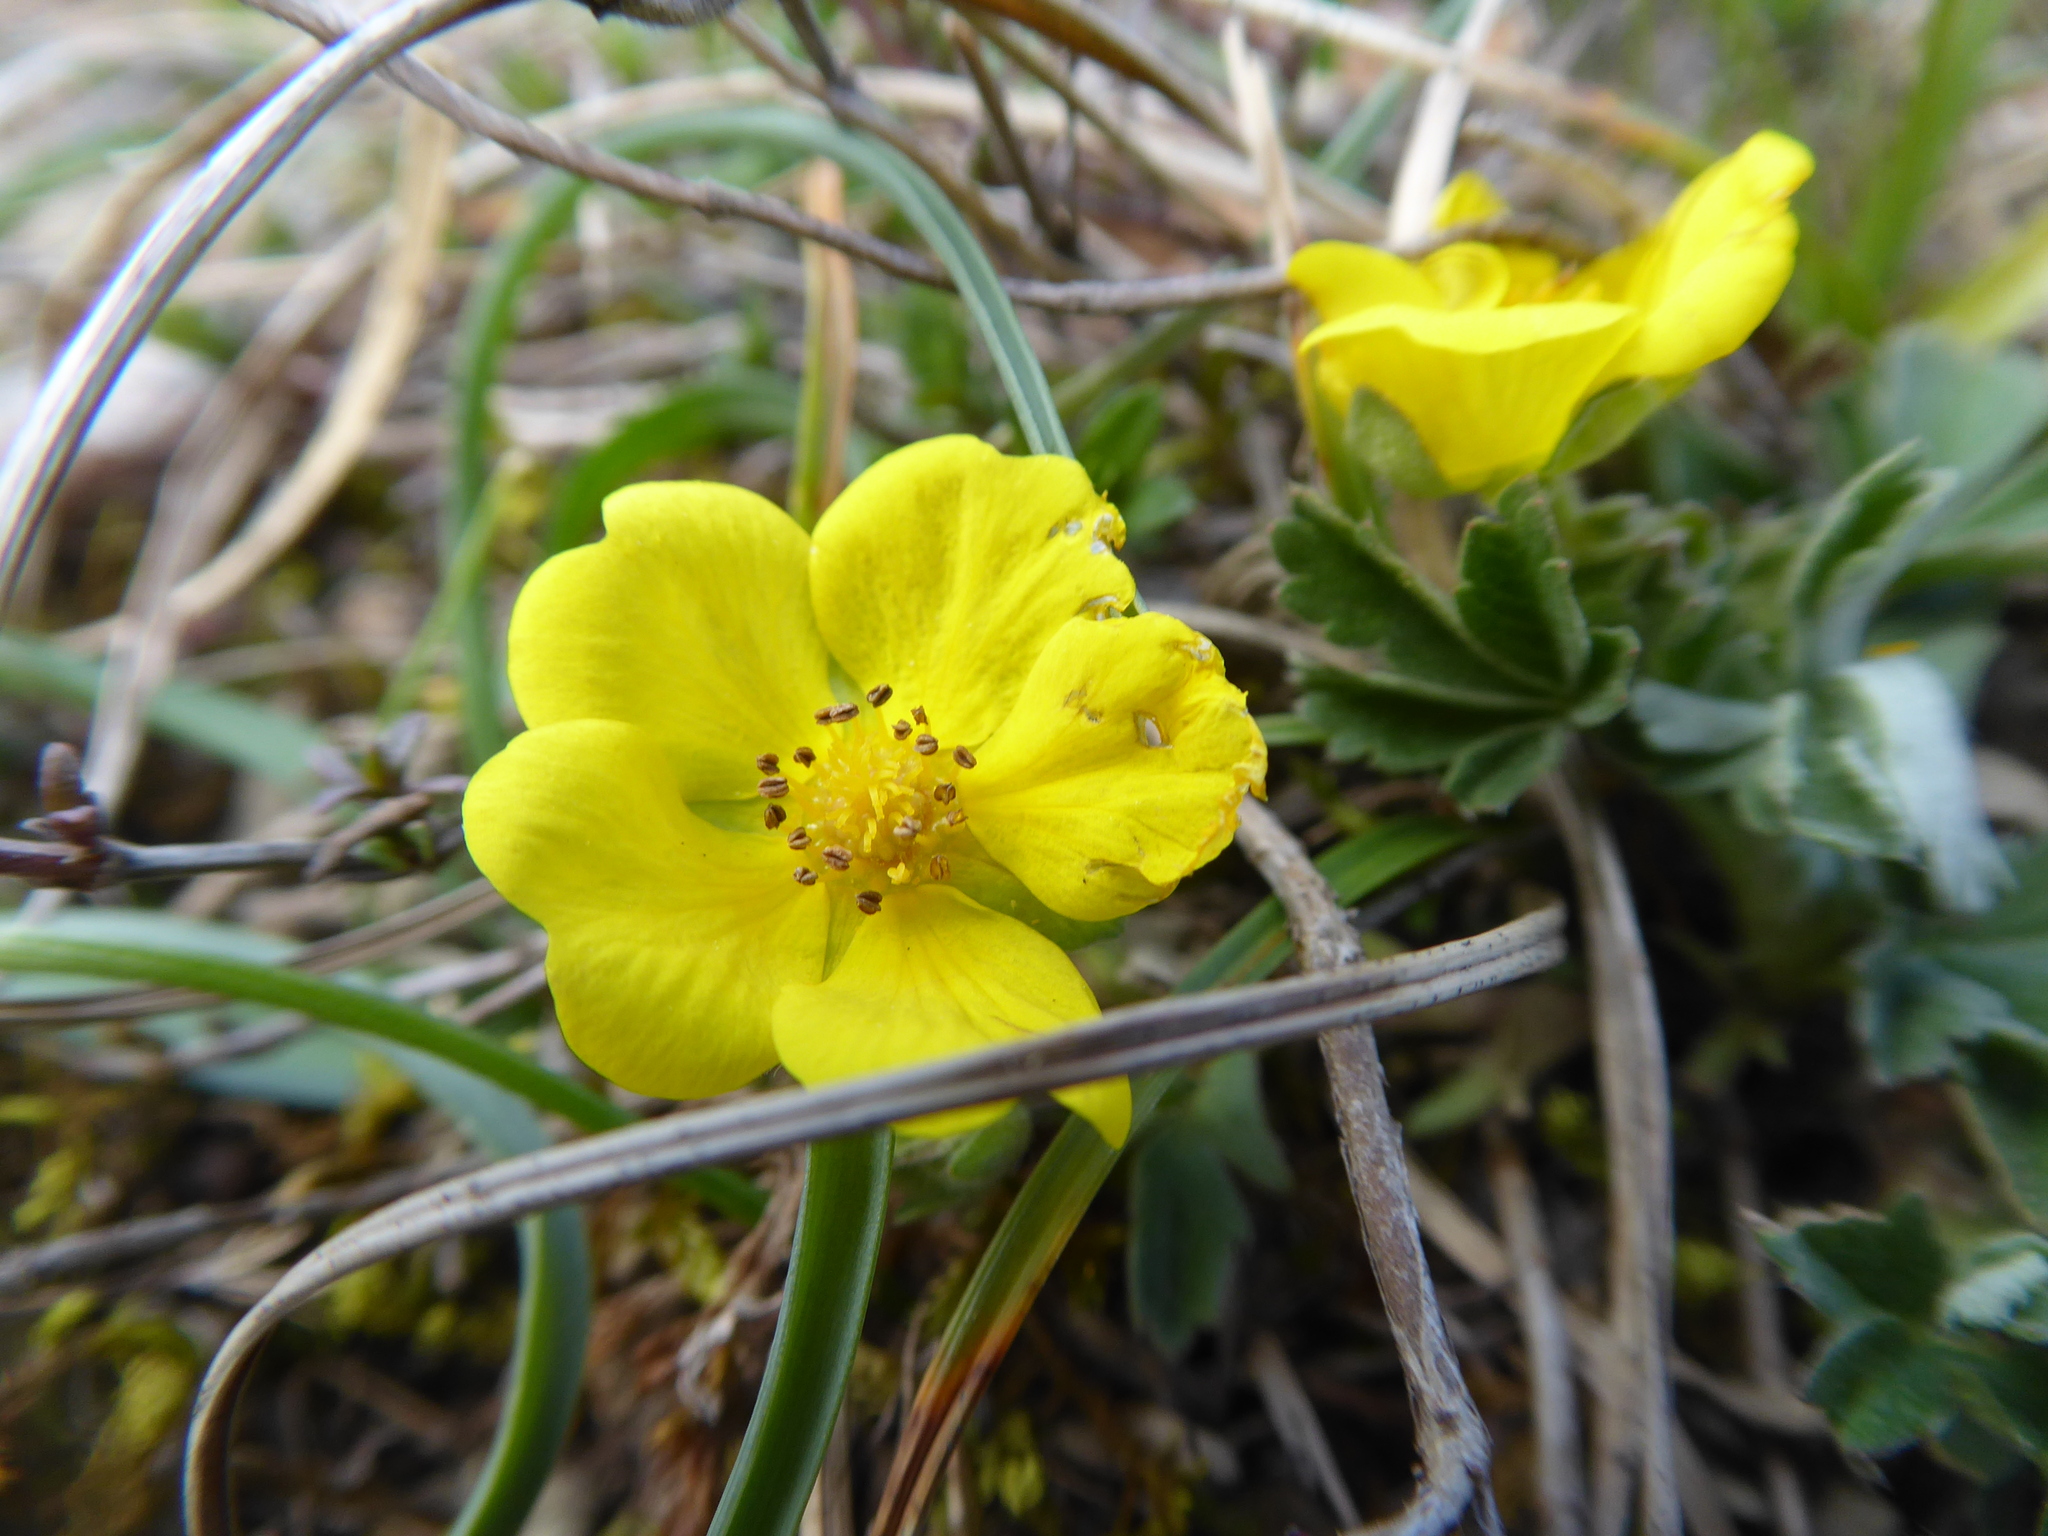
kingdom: Plantae
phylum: Tracheophyta
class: Magnoliopsida
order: Rosales
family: Rosaceae
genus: Potentilla
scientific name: Potentilla incana
